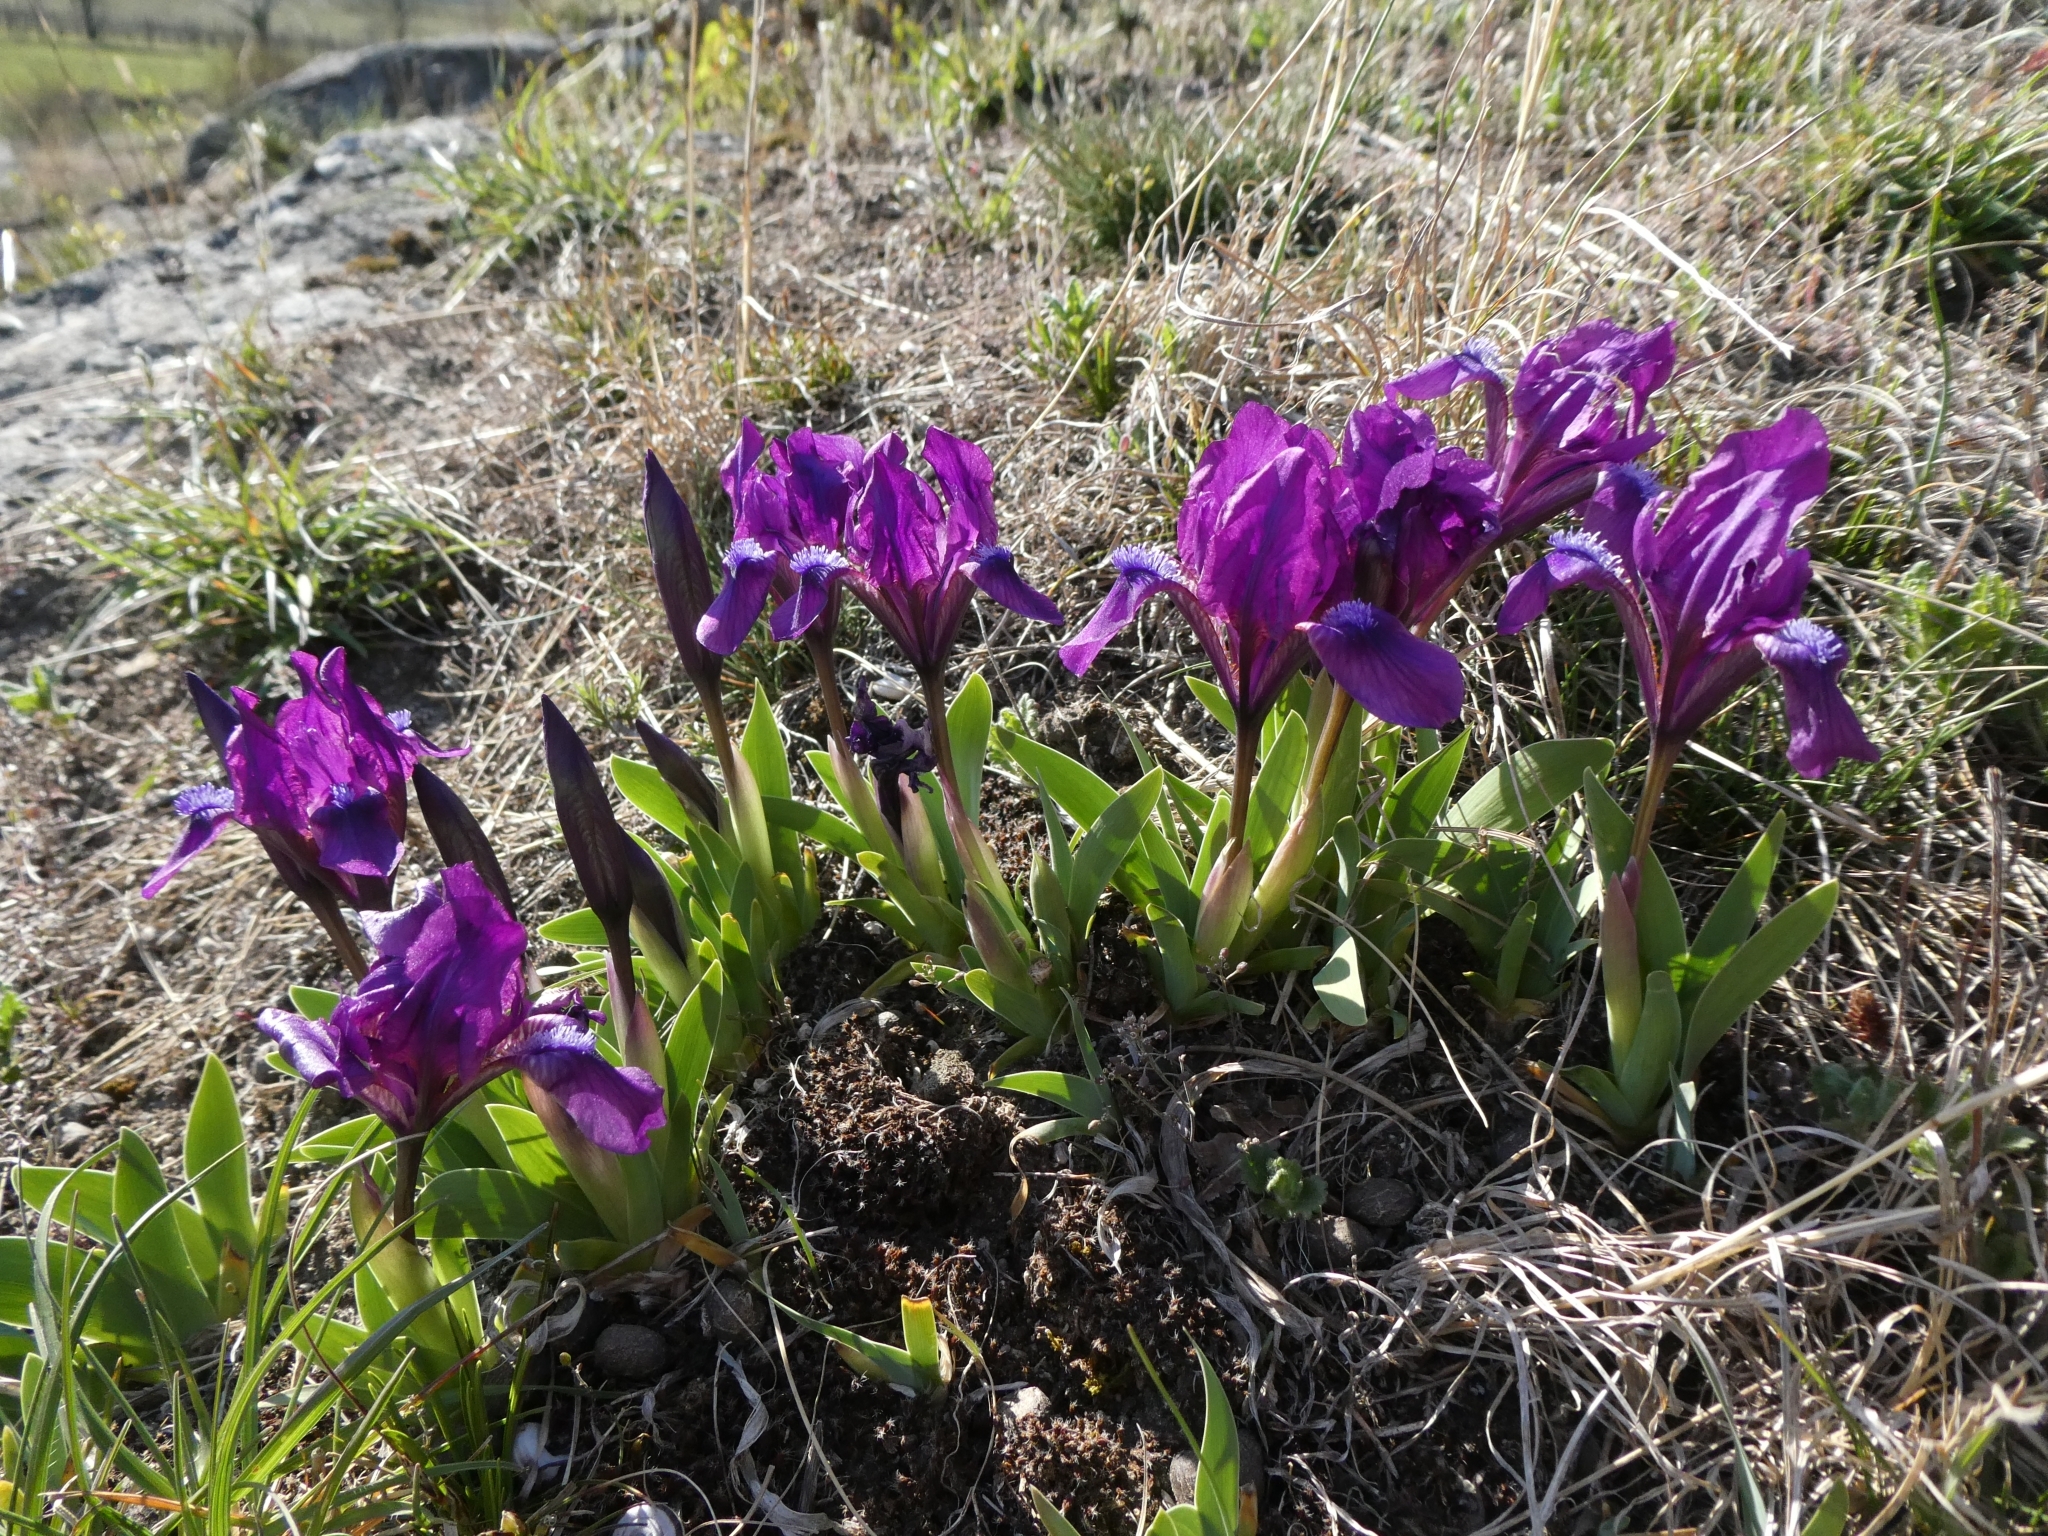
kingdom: Plantae
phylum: Tracheophyta
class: Liliopsida
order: Asparagales
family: Iridaceae
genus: Iris
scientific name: Iris pumila
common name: Dwarf iris
